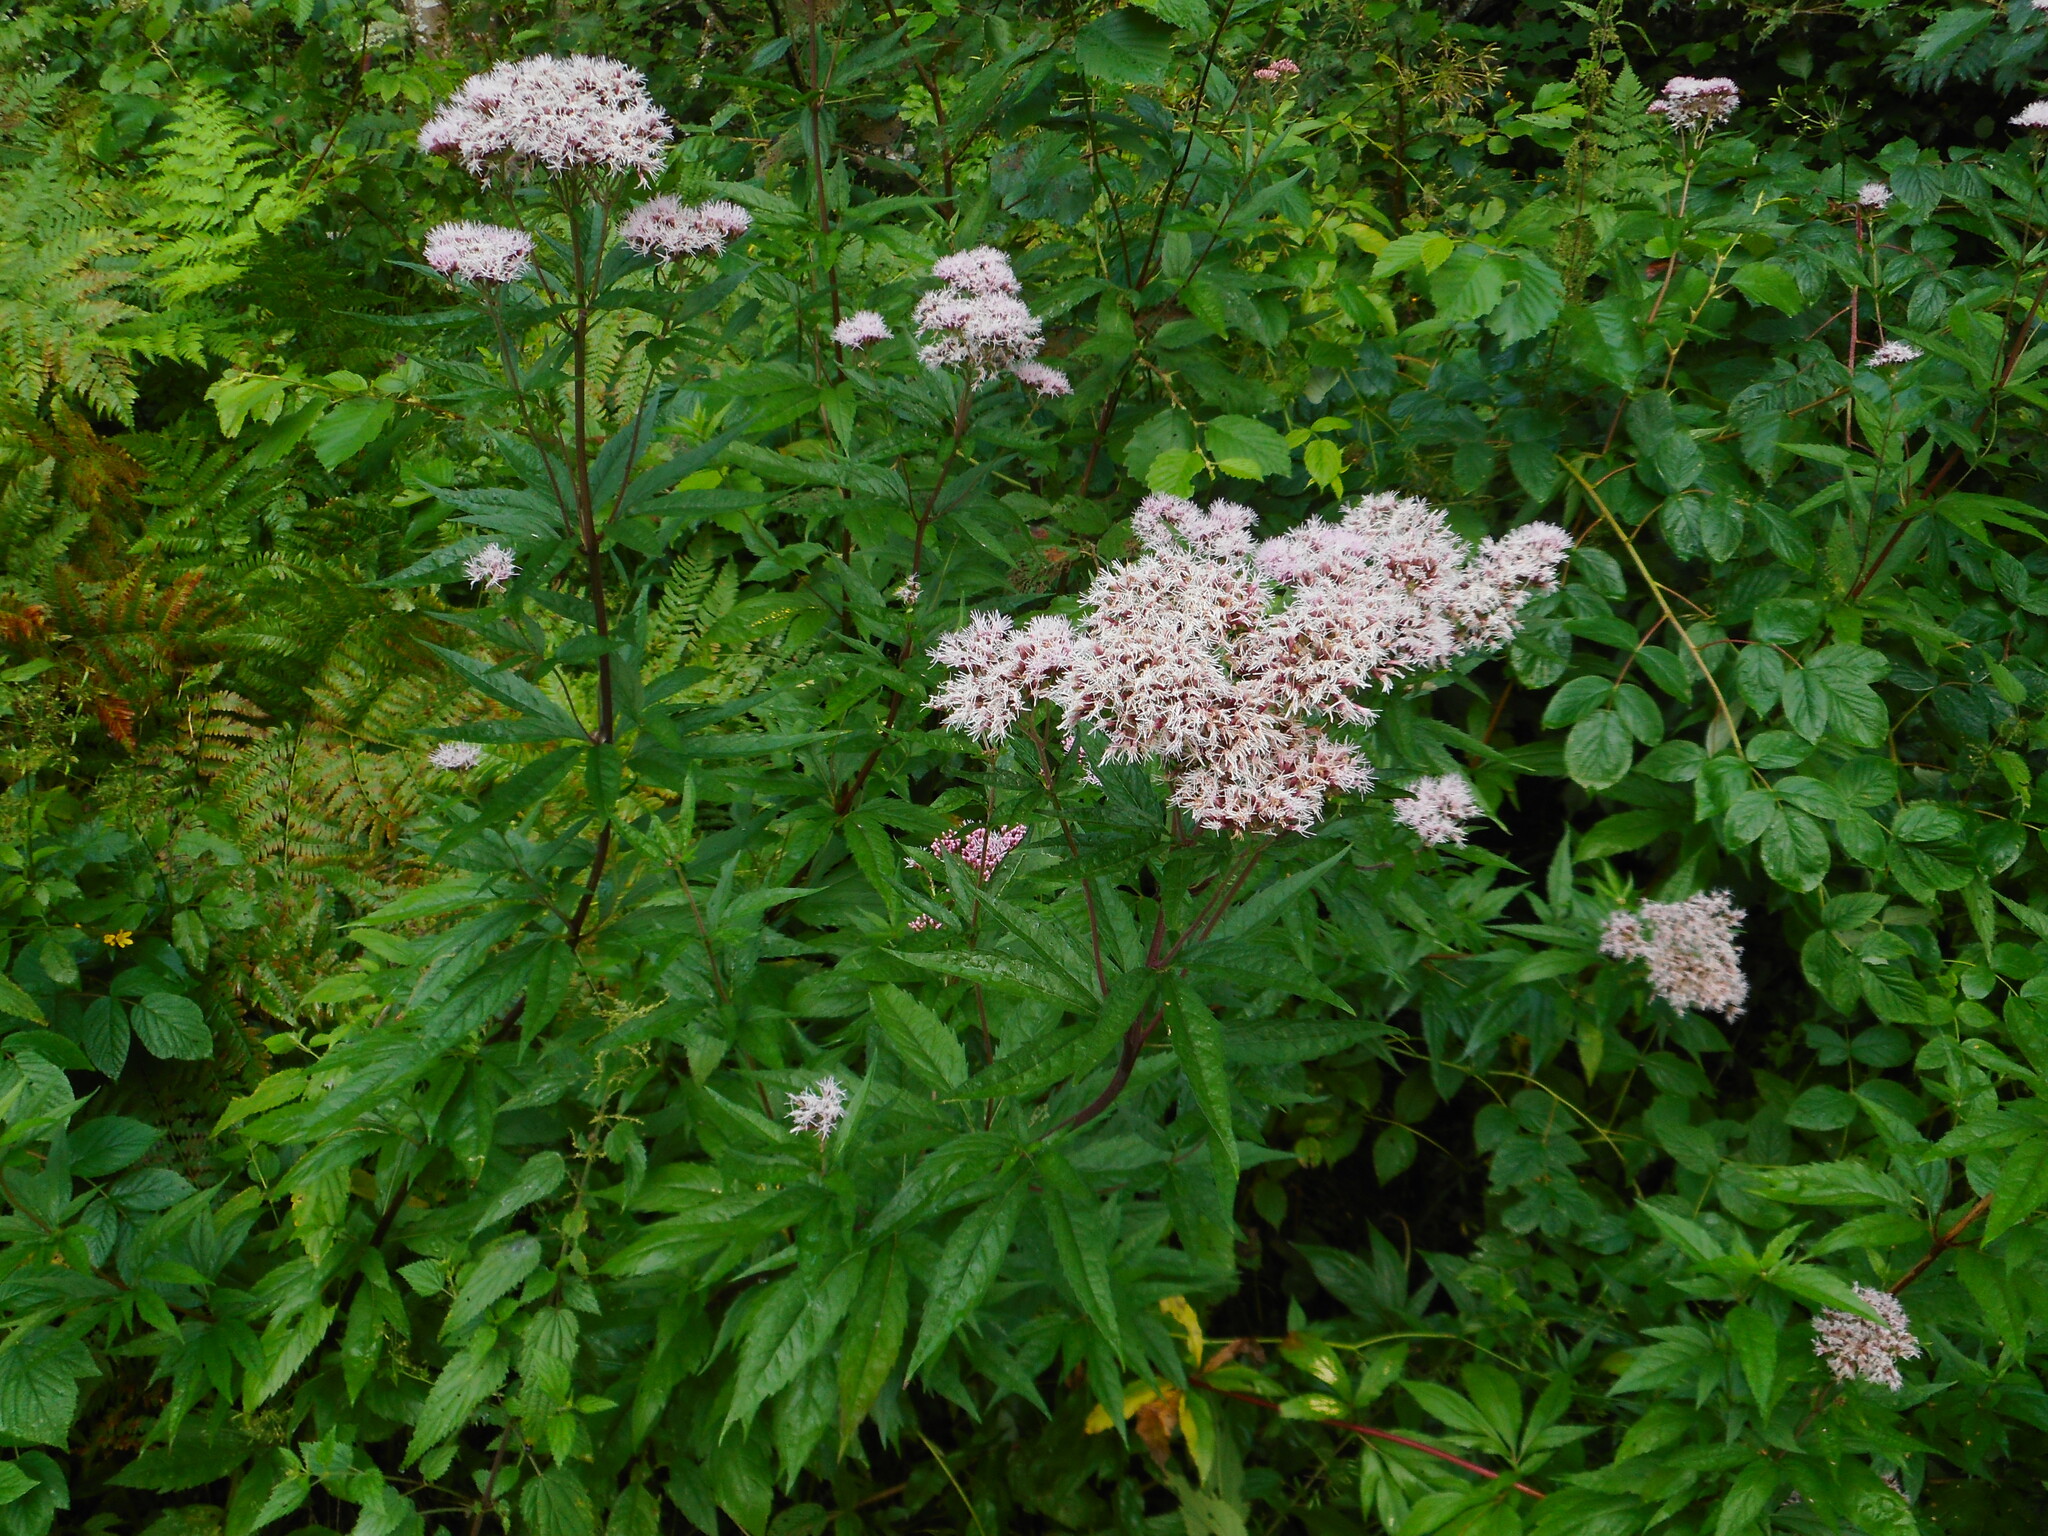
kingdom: Plantae
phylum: Tracheophyta
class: Magnoliopsida
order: Asterales
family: Asteraceae
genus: Eupatorium
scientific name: Eupatorium cannabinum
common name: Hemp-agrimony
